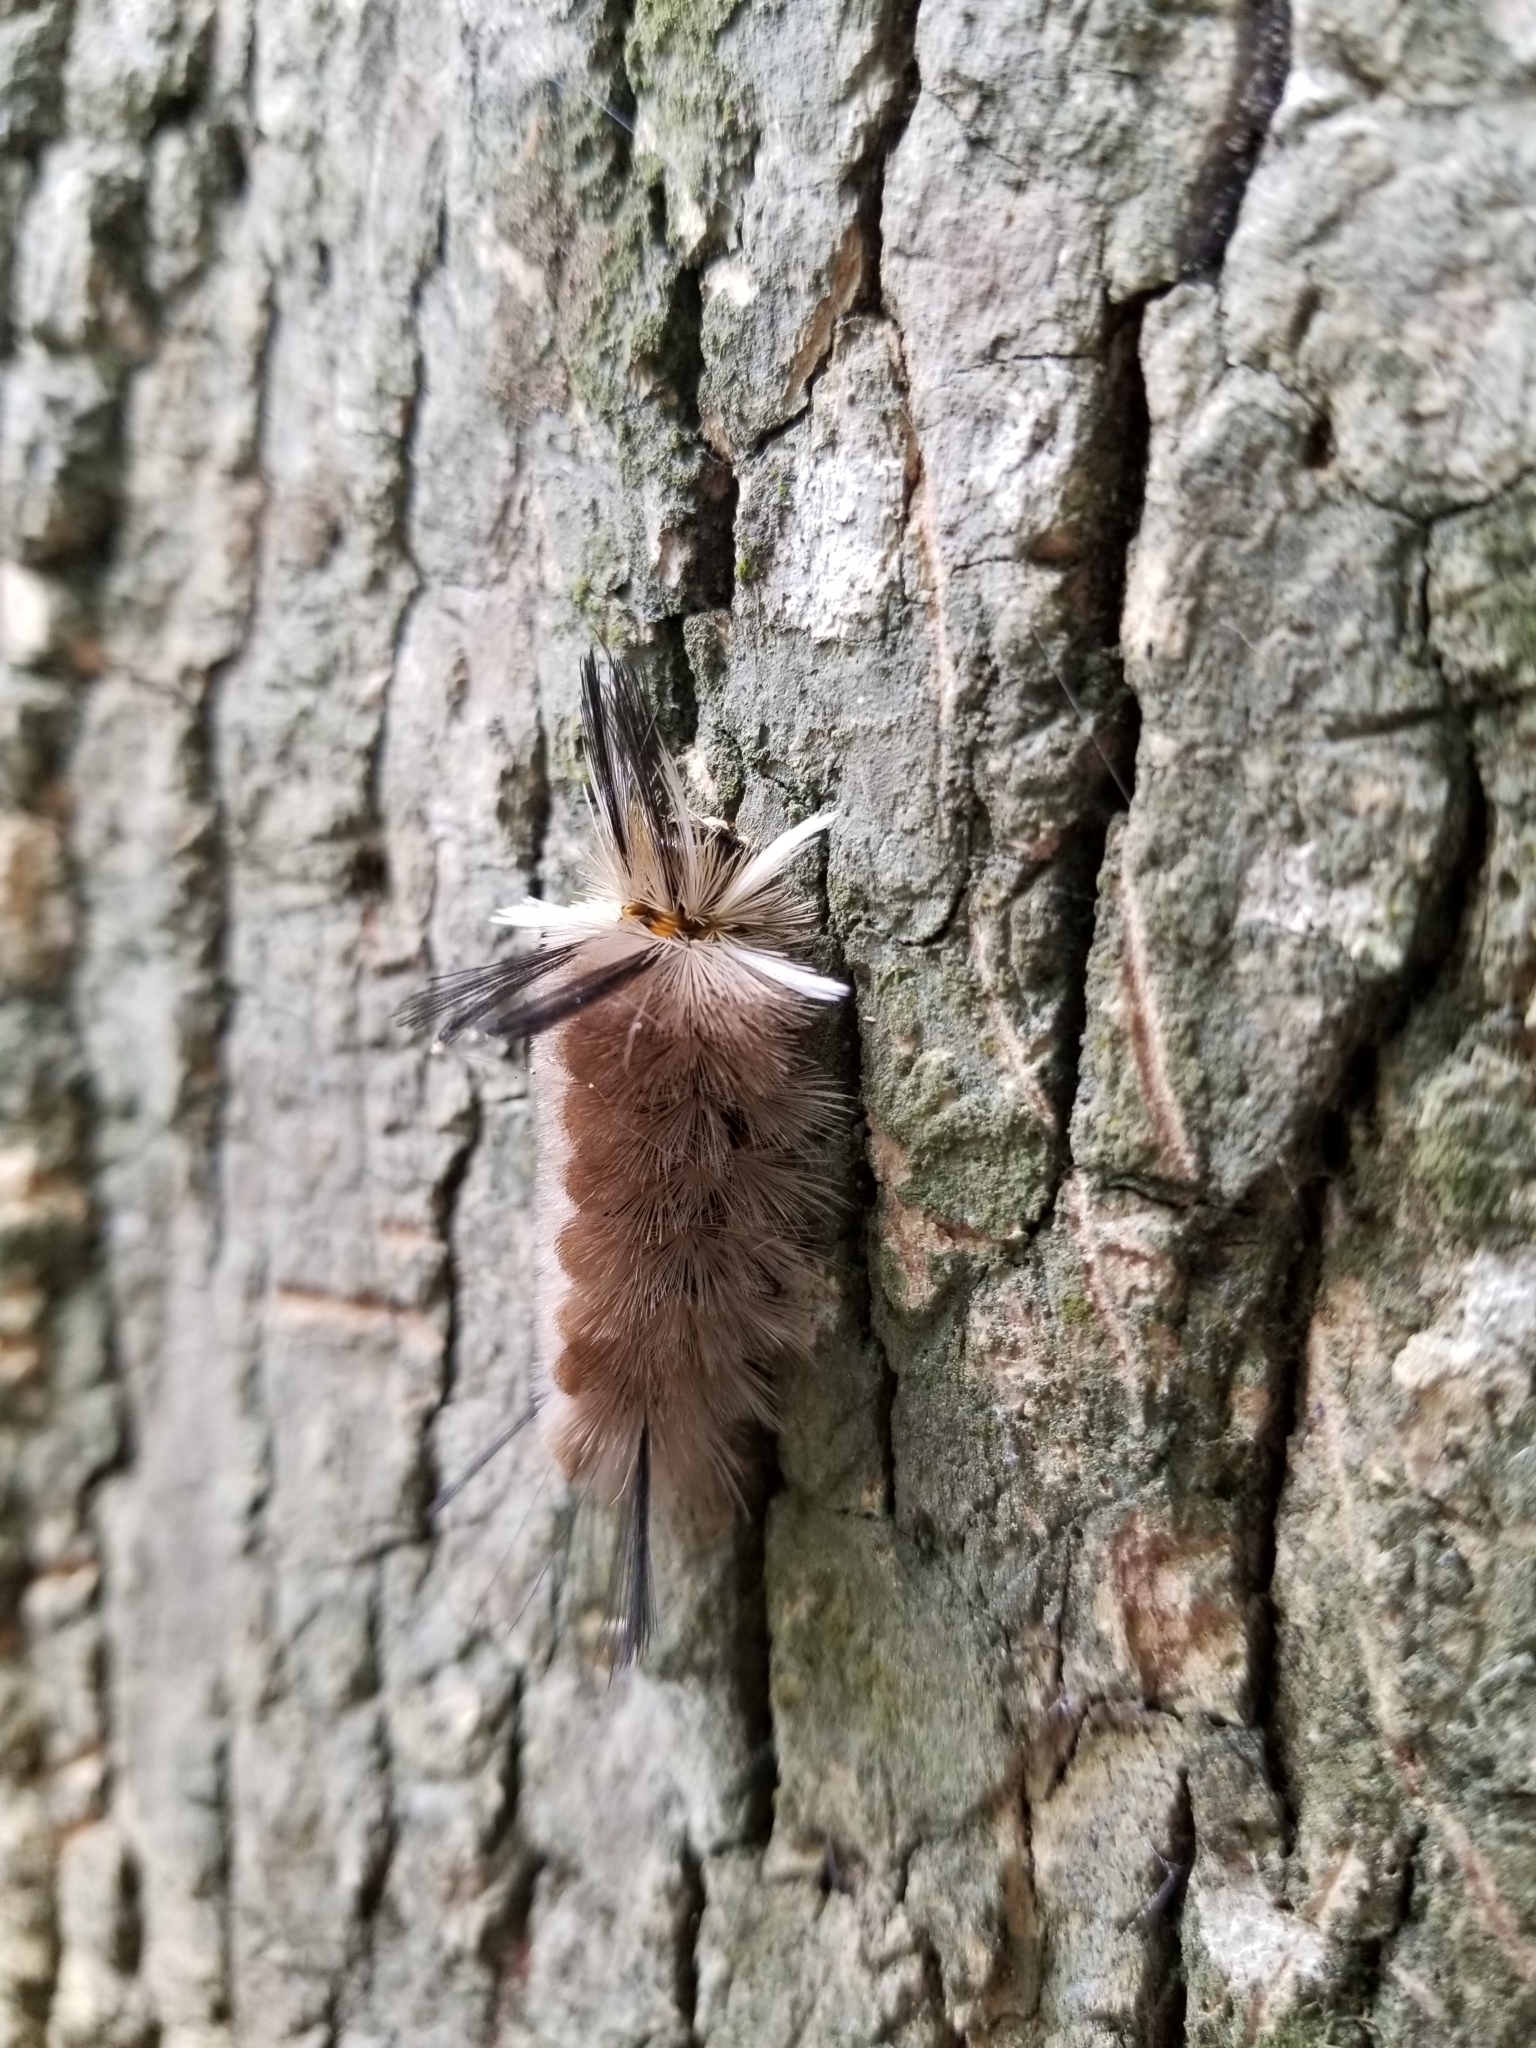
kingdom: Animalia
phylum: Arthropoda
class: Insecta
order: Lepidoptera
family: Erebidae
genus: Halysidota
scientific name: Halysidota tessellaris
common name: Banded tussock moth
